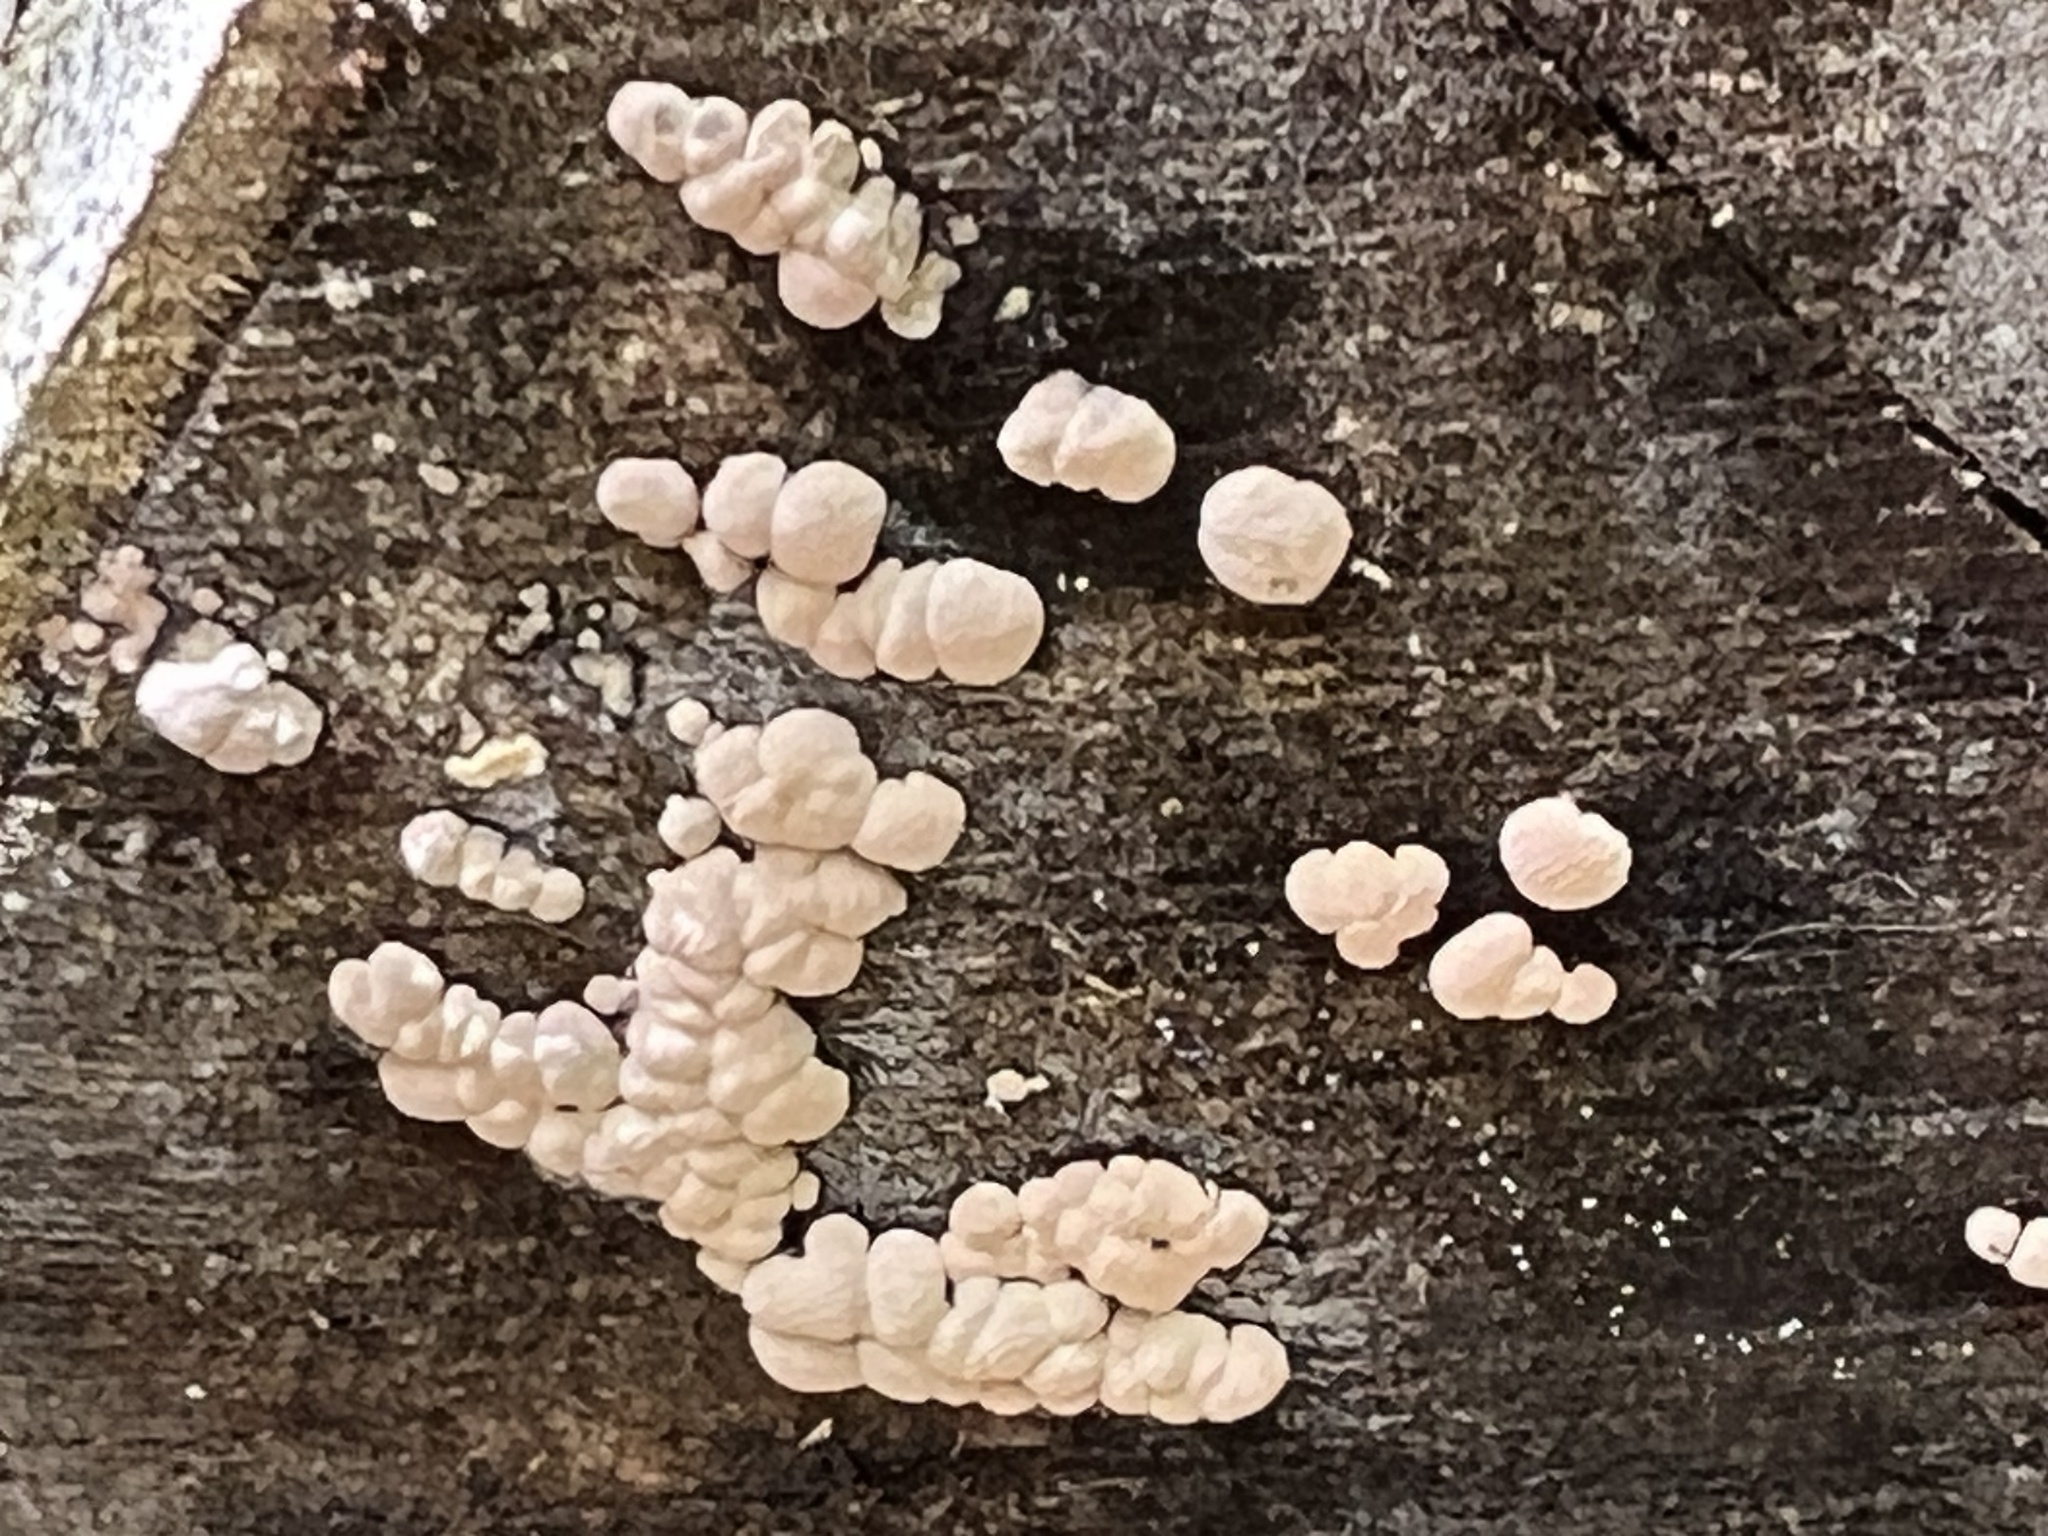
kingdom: Fungi
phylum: Basidiomycota
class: Agaricomycetes
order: Russulales
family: Stereaceae
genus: Xylobolus
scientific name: Xylobolus frustulatus
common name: Ceramic parchment
